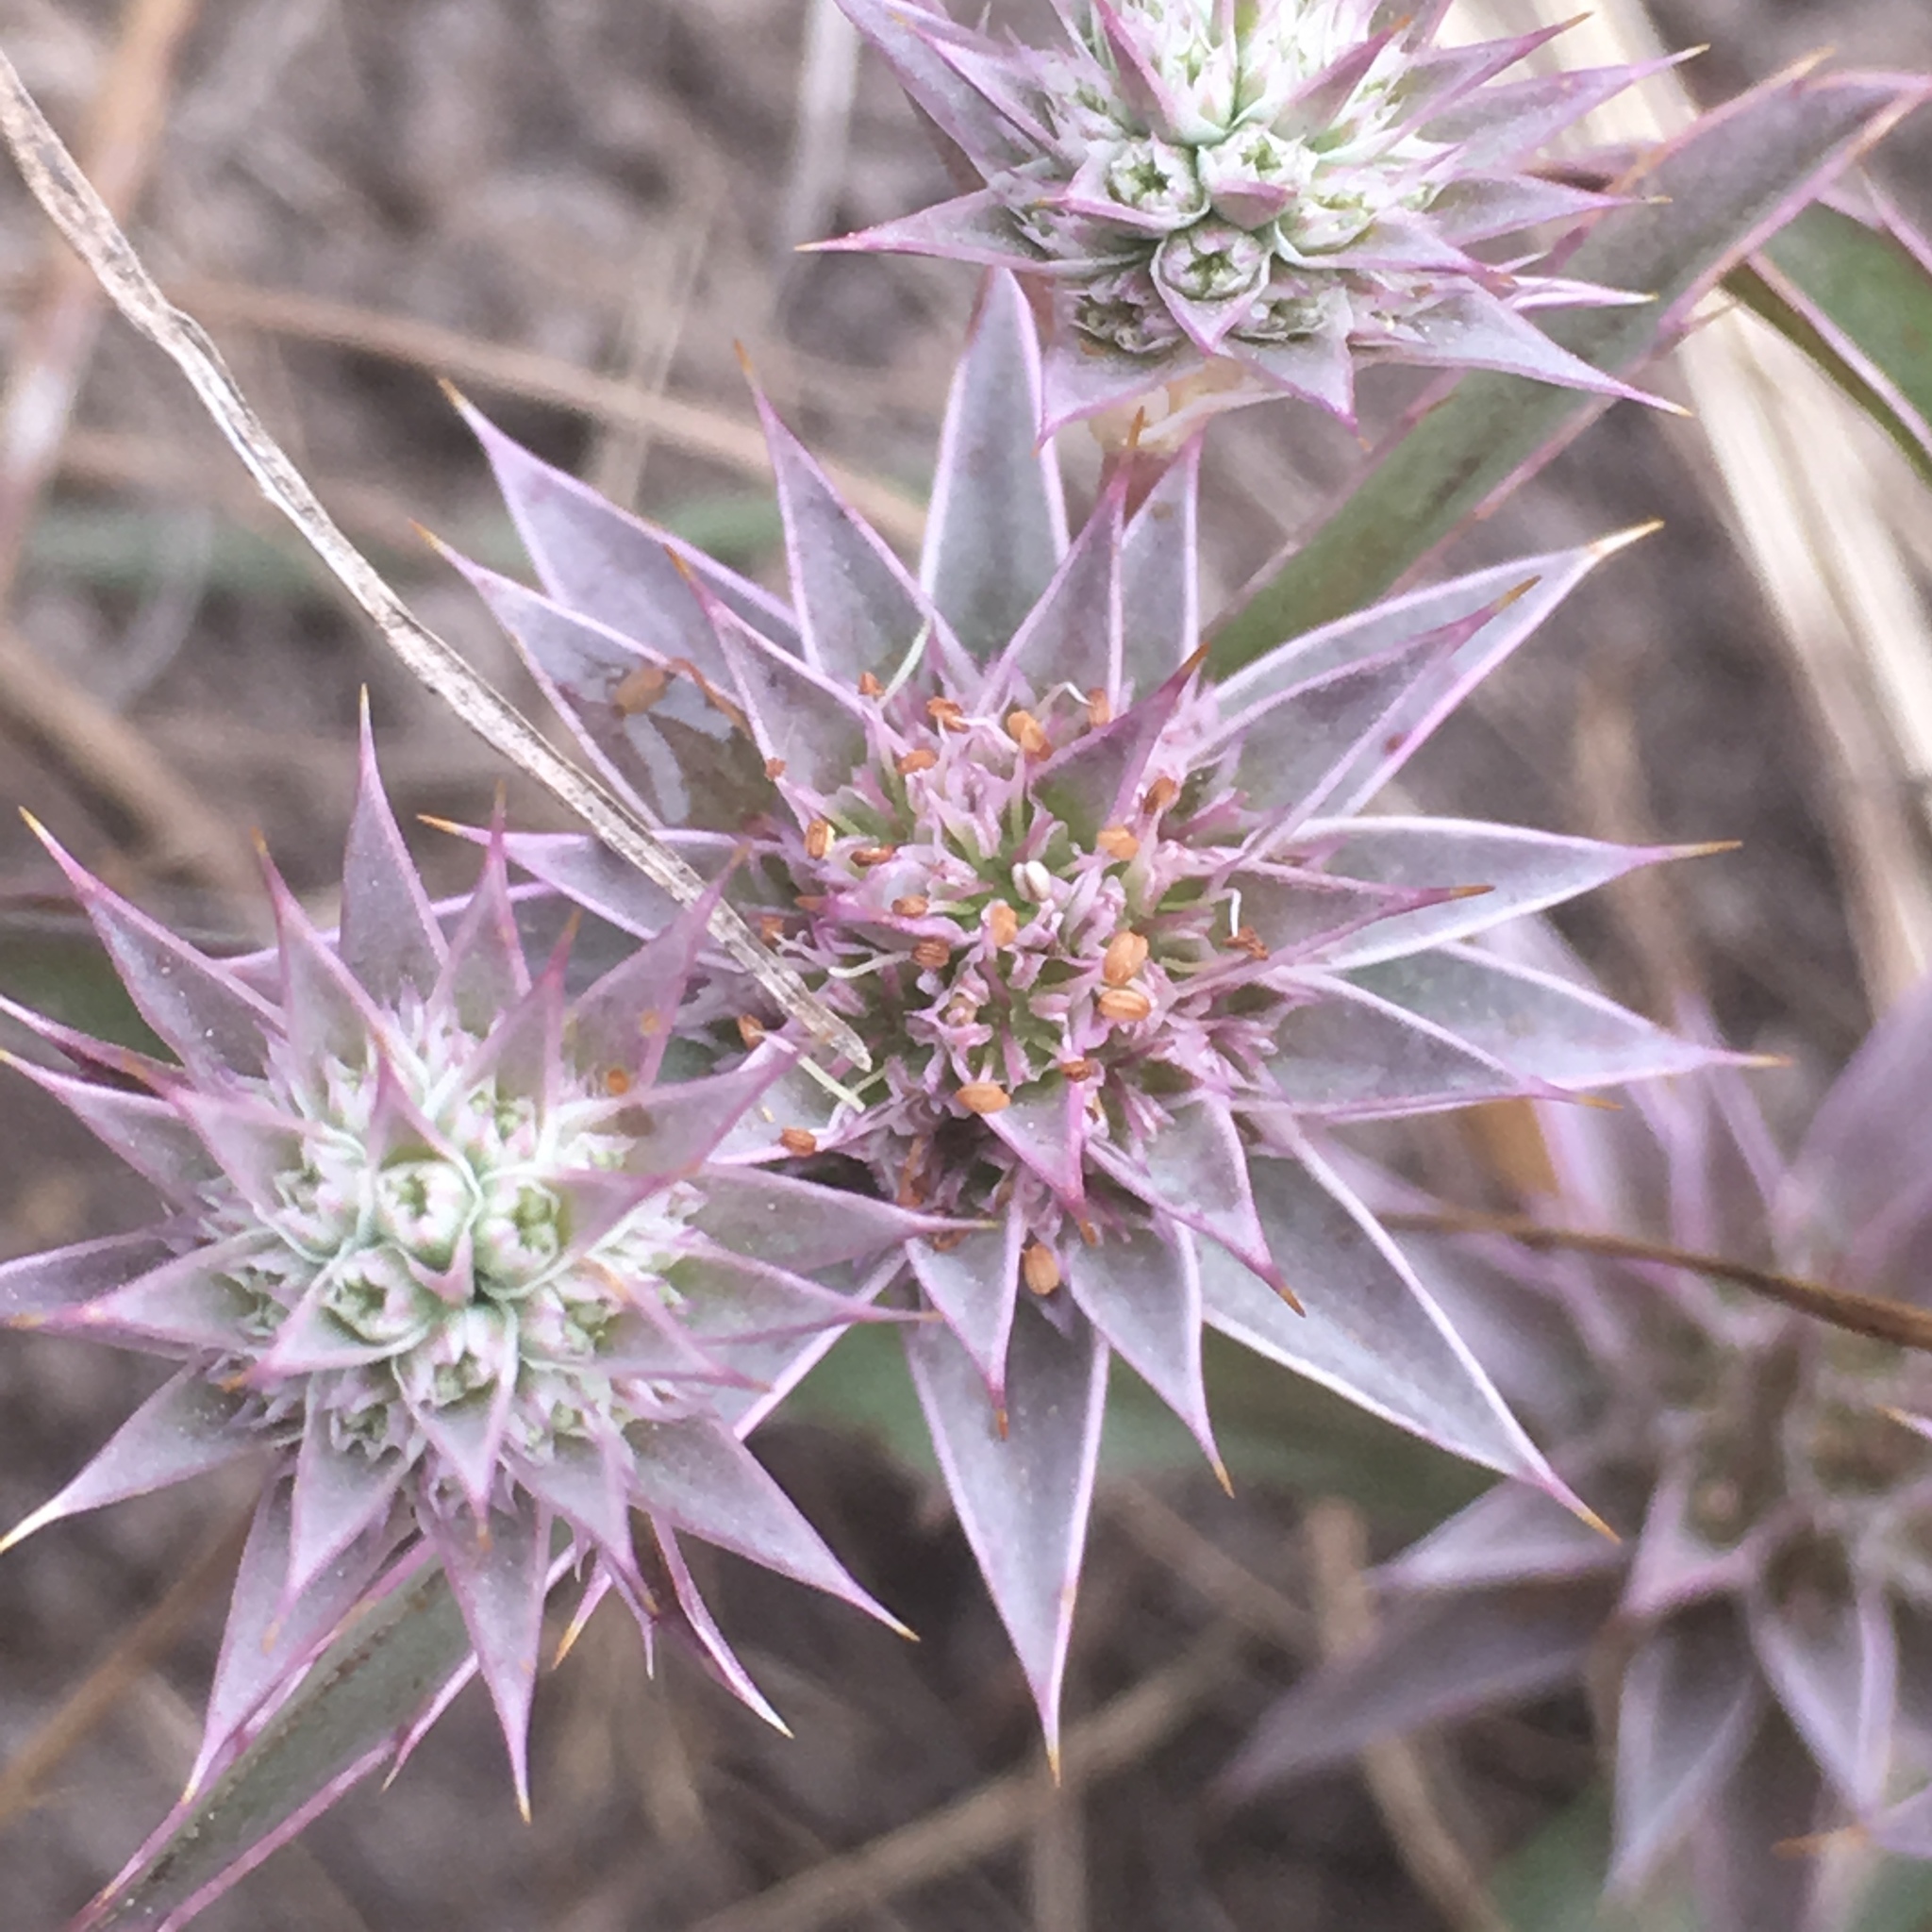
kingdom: Plantae
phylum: Tracheophyta
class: Magnoliopsida
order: Apiales
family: Apiaceae
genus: Eryngium
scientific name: Eryngium armatum
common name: Coyote thistle
